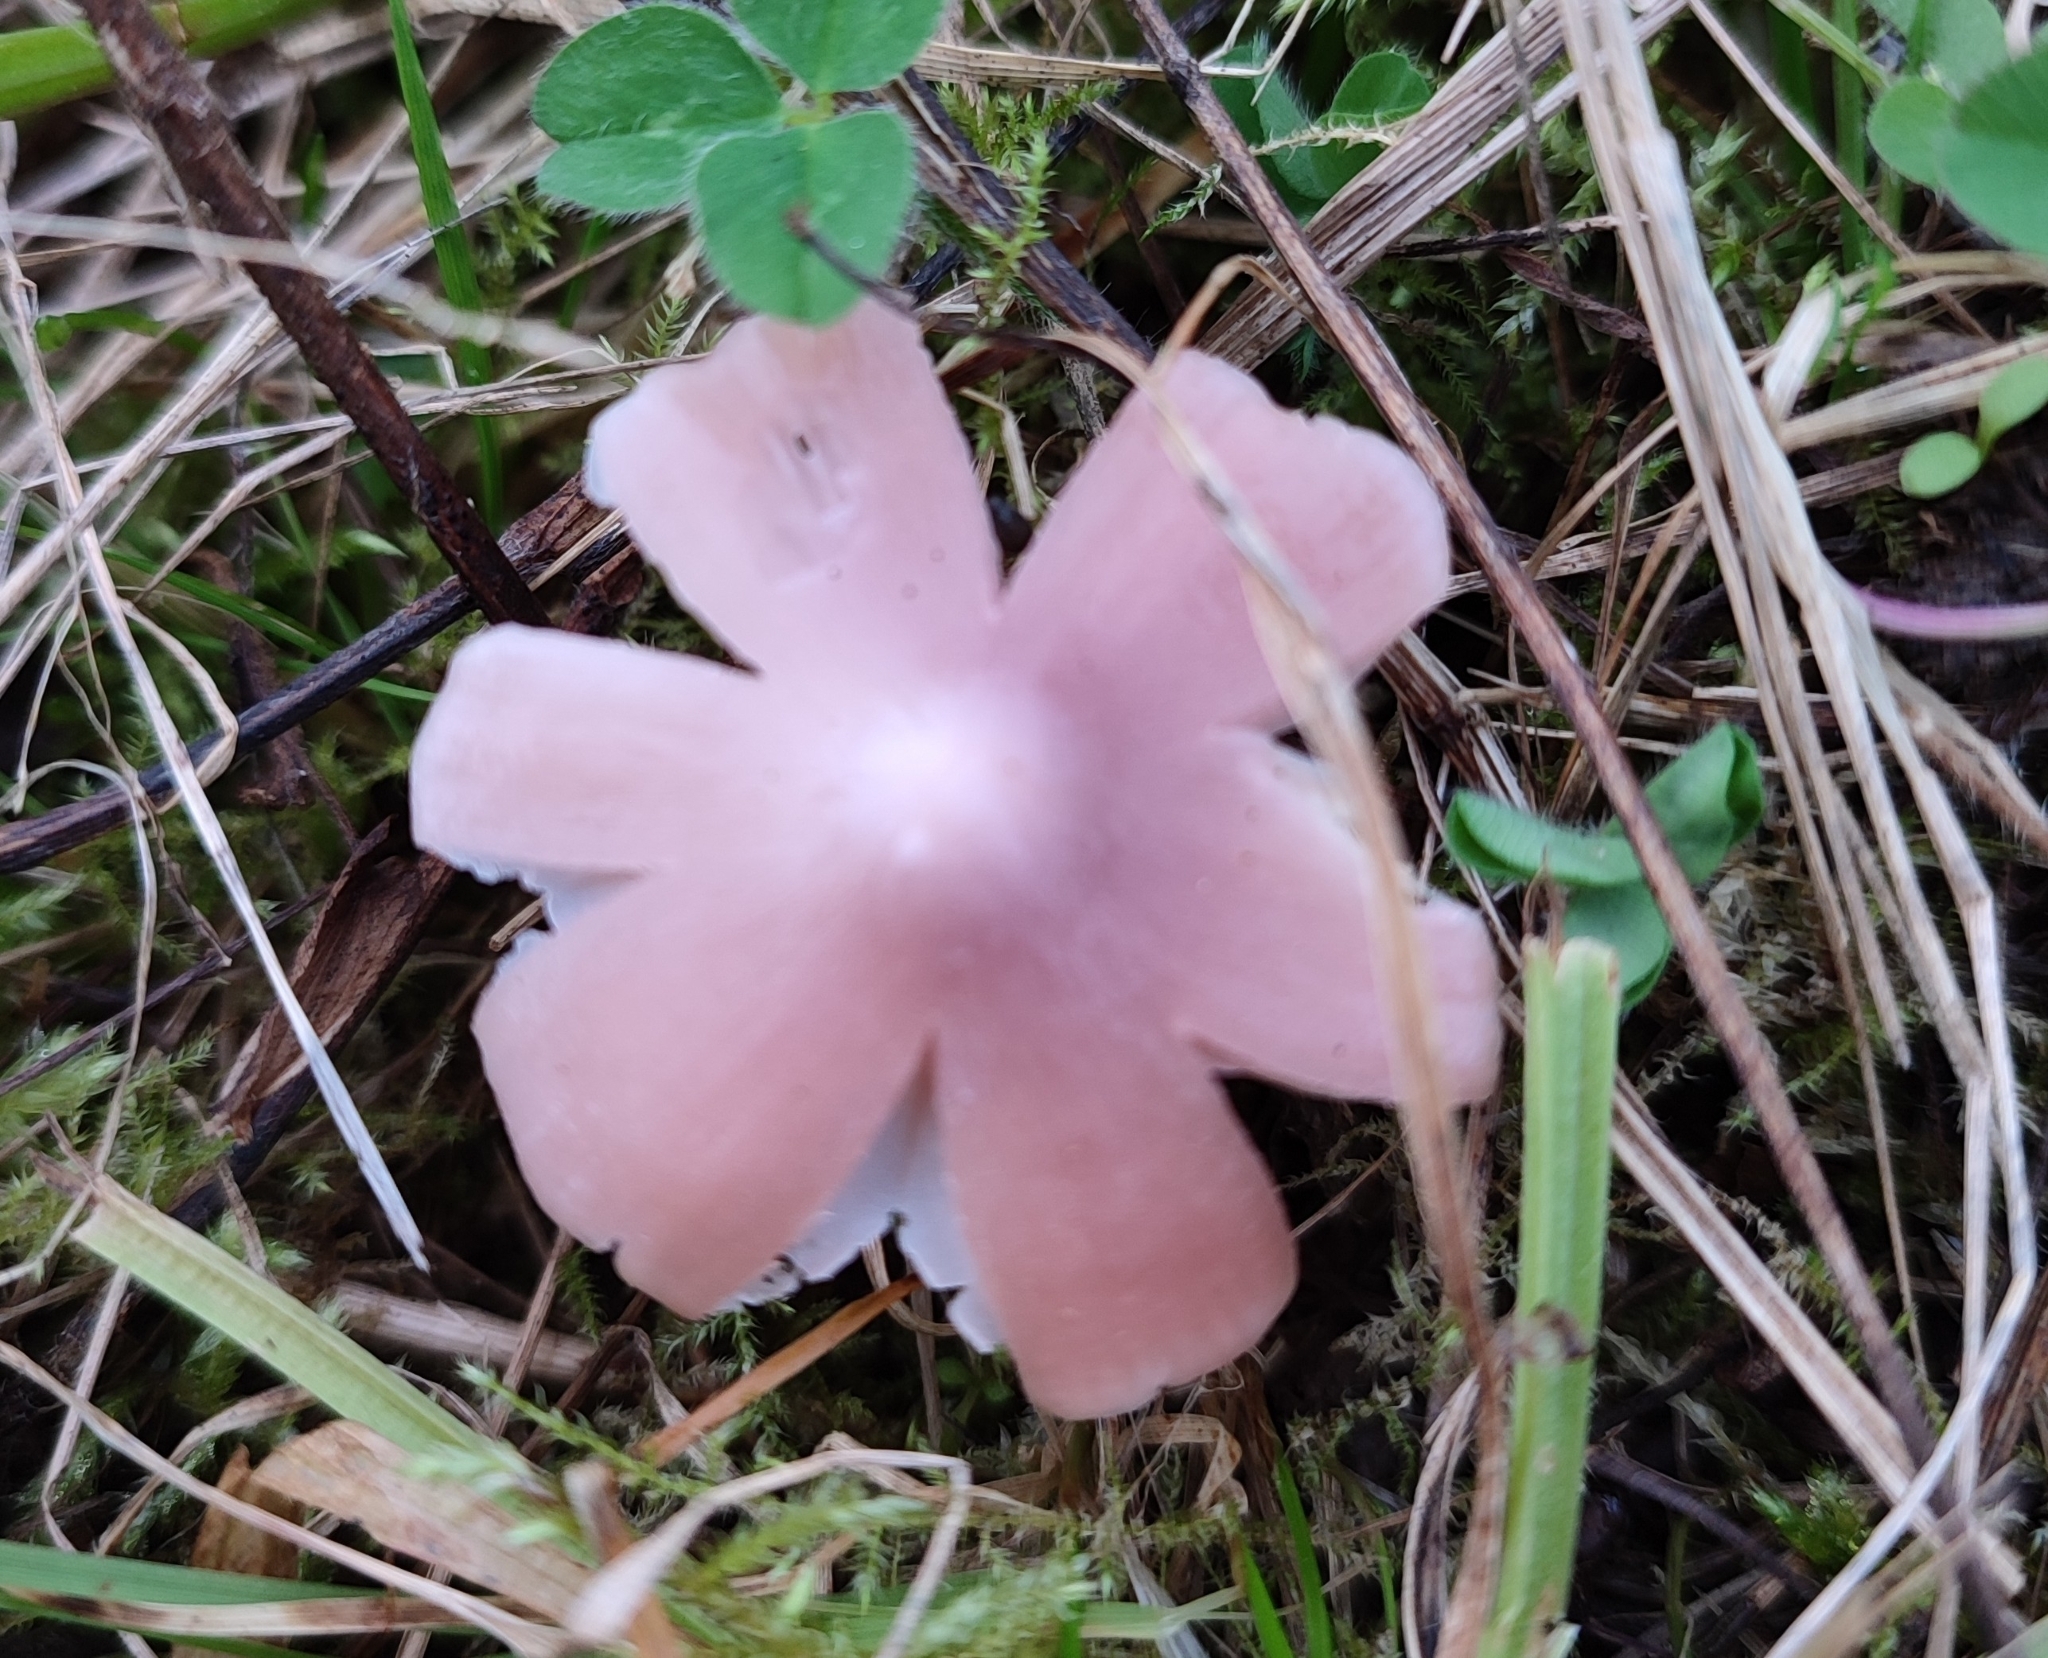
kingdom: Fungi
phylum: Basidiomycota
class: Agaricomycetes
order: Agaricales
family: Hygrophoraceae
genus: Porpolomopsis
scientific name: Porpolomopsis calyptriformis
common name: Pink waxcap
